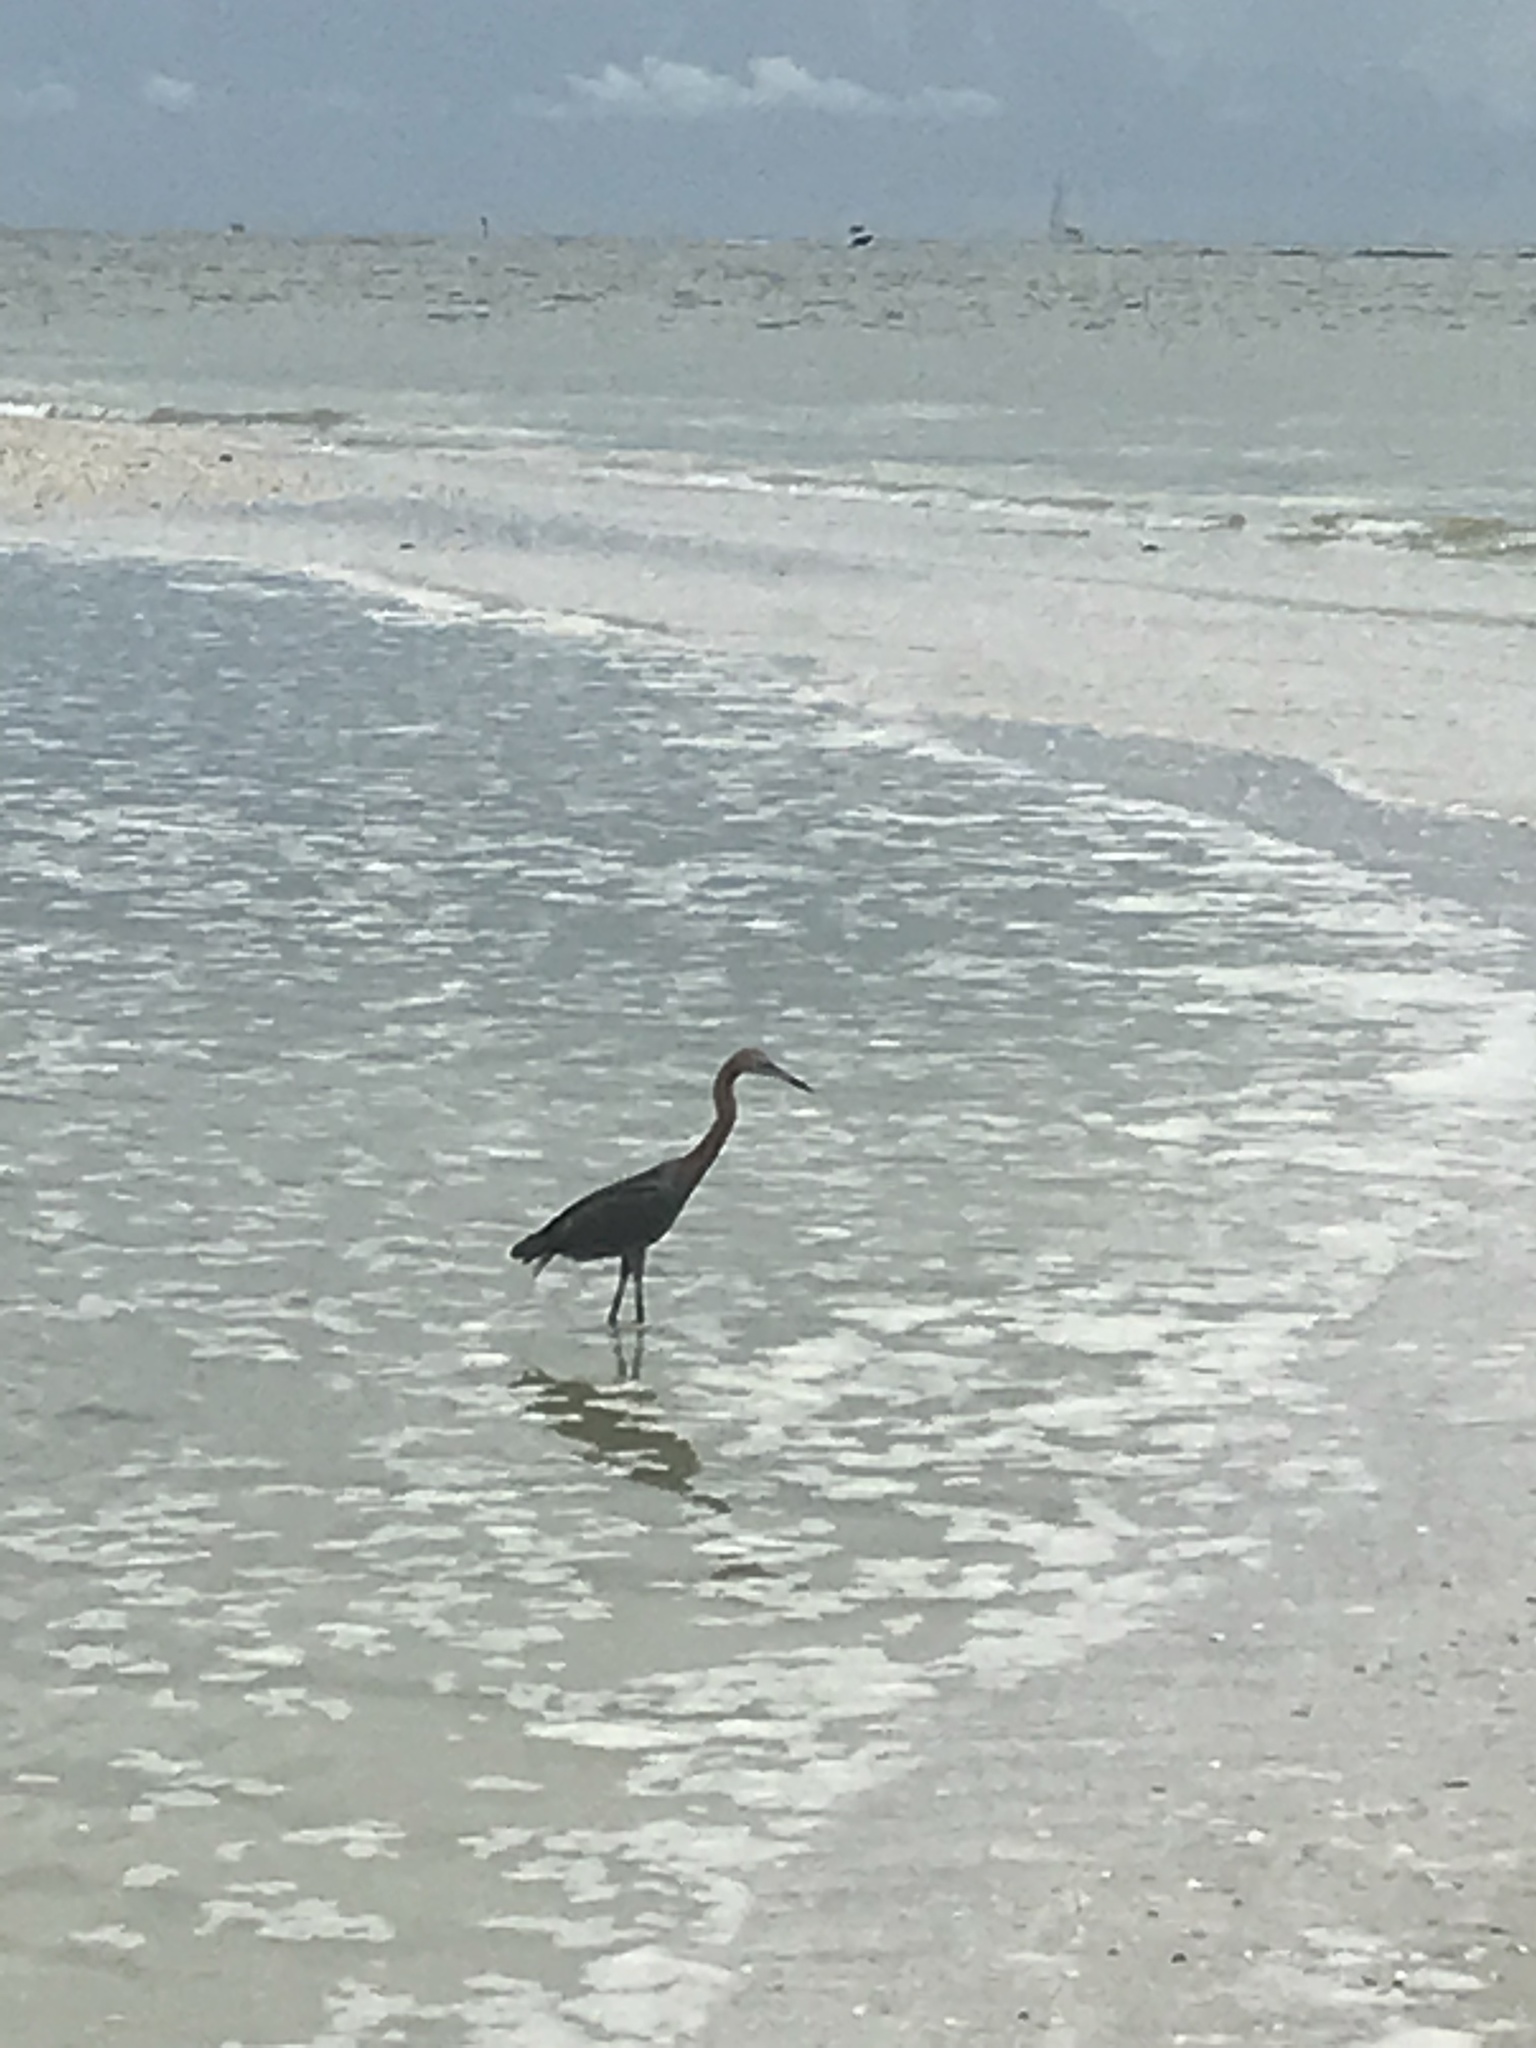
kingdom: Animalia
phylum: Chordata
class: Aves
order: Pelecaniformes
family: Ardeidae
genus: Egretta
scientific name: Egretta rufescens
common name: Reddish egret
